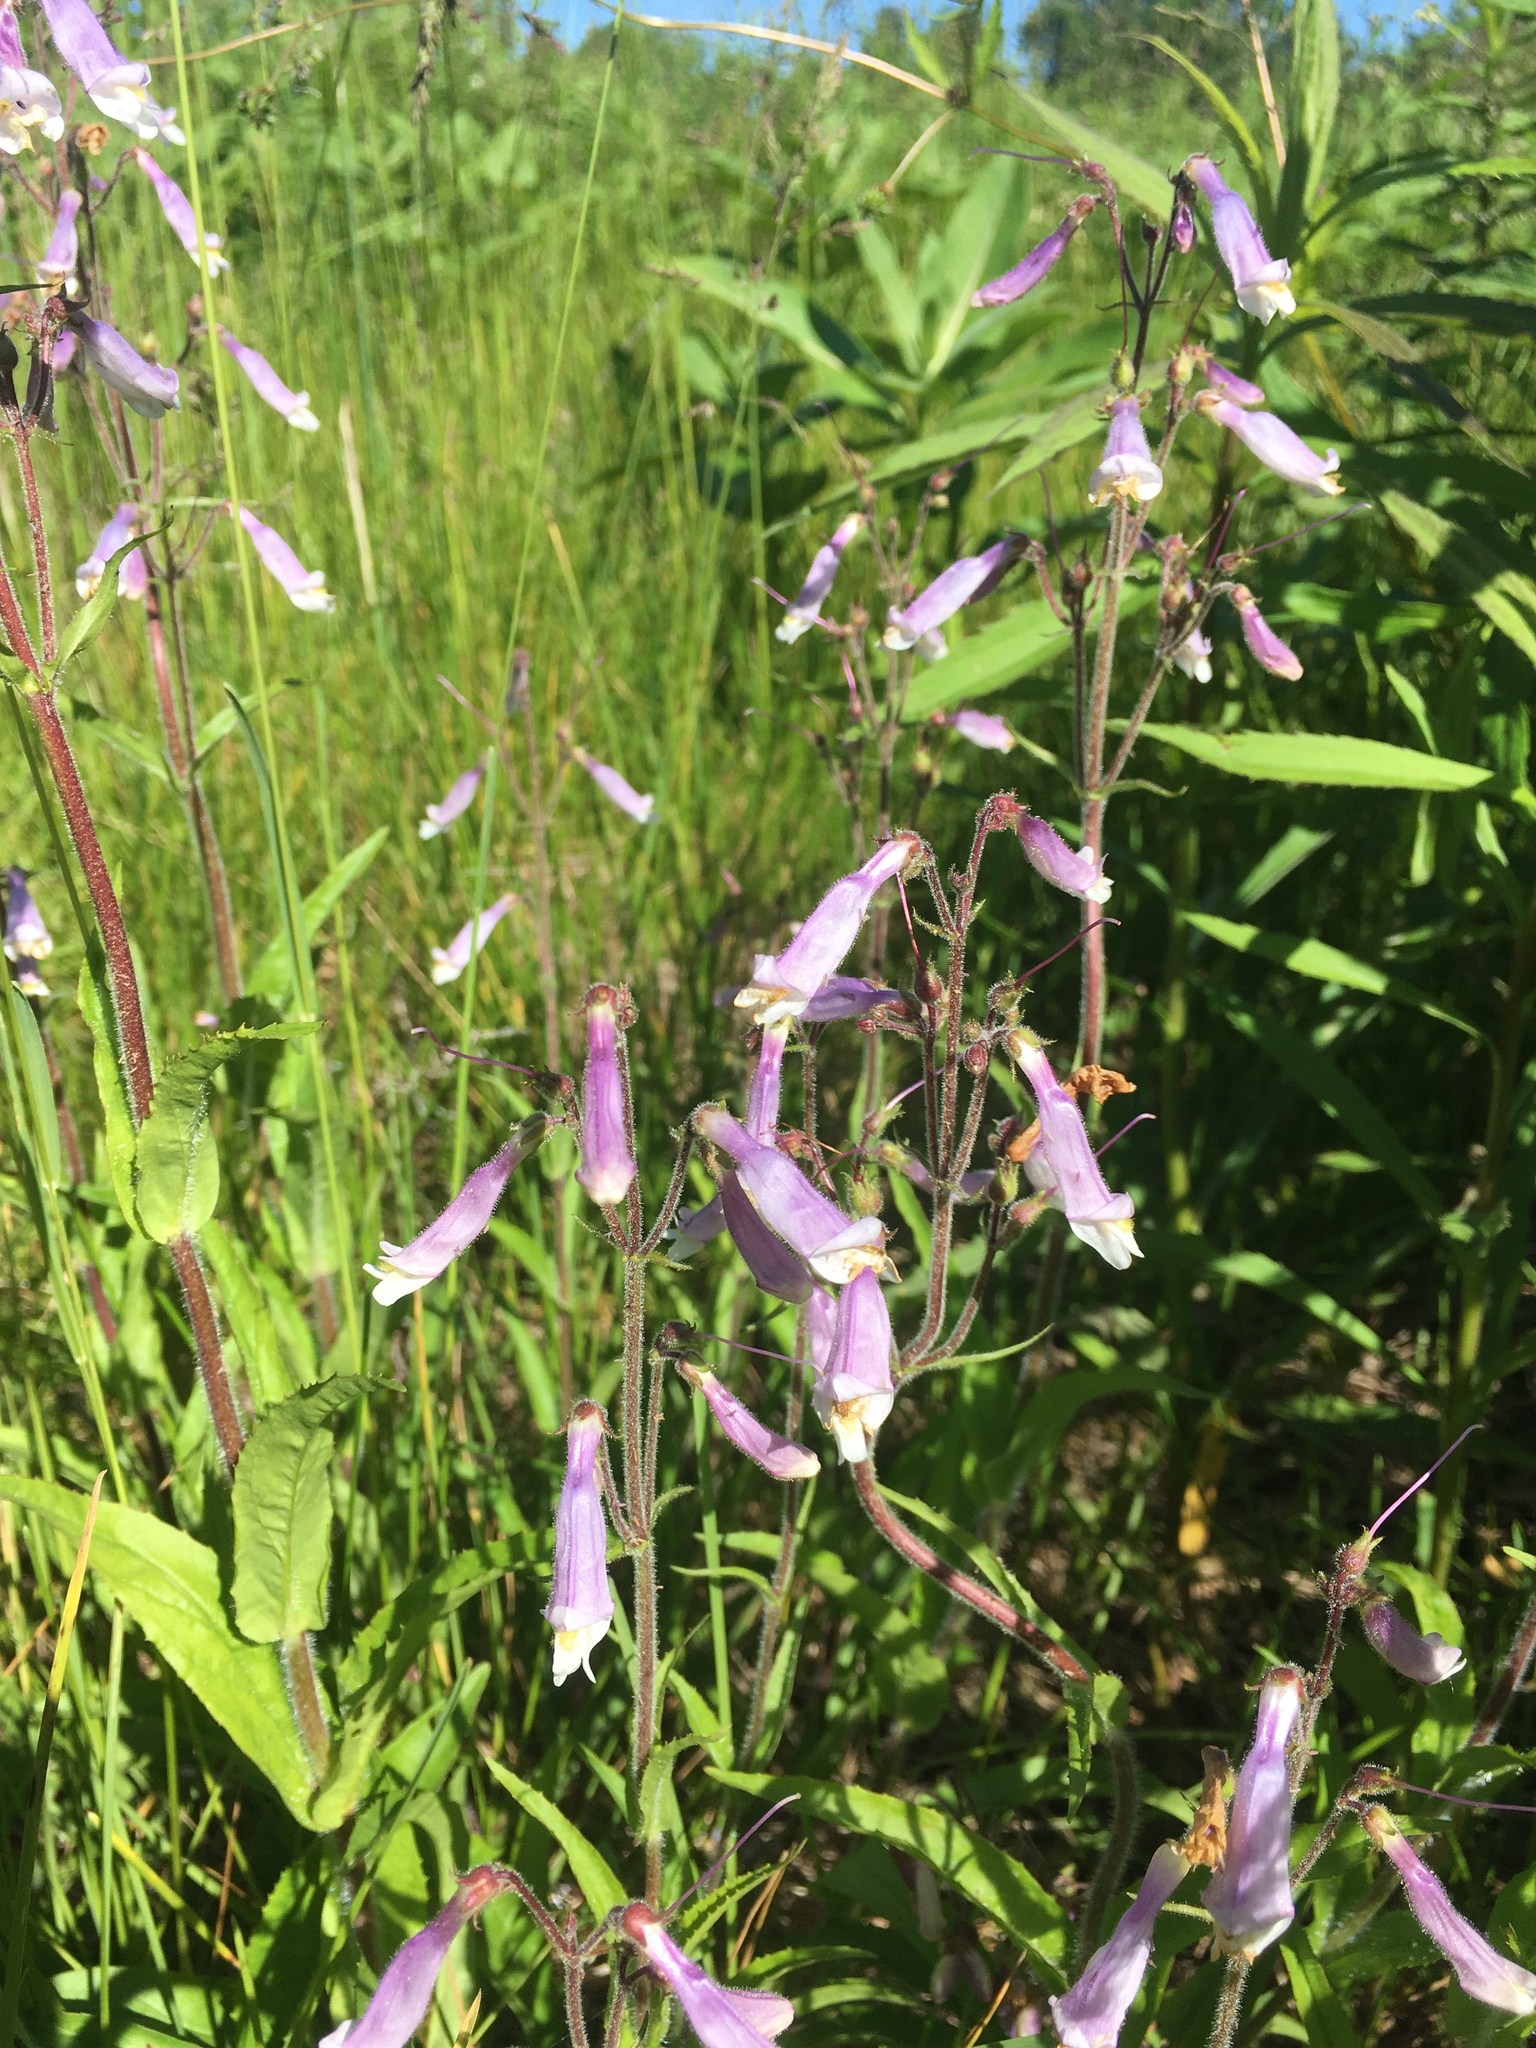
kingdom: Plantae
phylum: Tracheophyta
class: Magnoliopsida
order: Lamiales
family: Plantaginaceae
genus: Penstemon
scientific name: Penstemon hirsutus
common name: Hairy beardtongue
